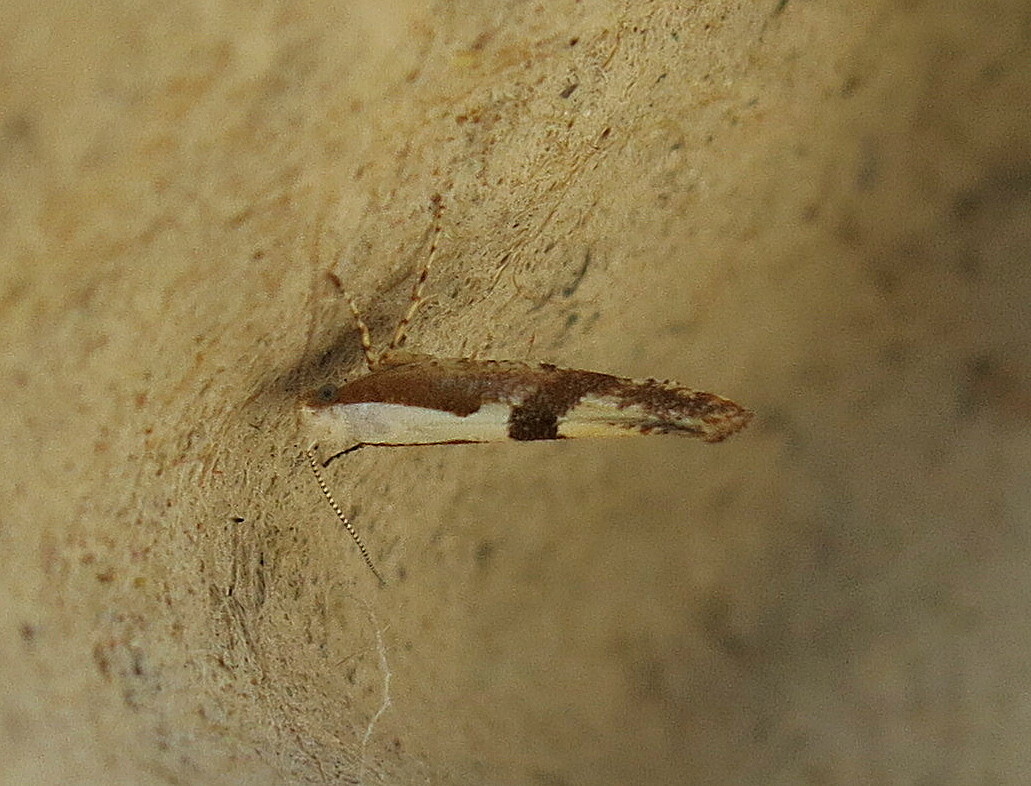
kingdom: Animalia
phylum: Arthropoda
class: Insecta
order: Lepidoptera
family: Argyresthiidae
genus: Argyresthia
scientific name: Argyresthia pruniella
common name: Cherry fruit moth
